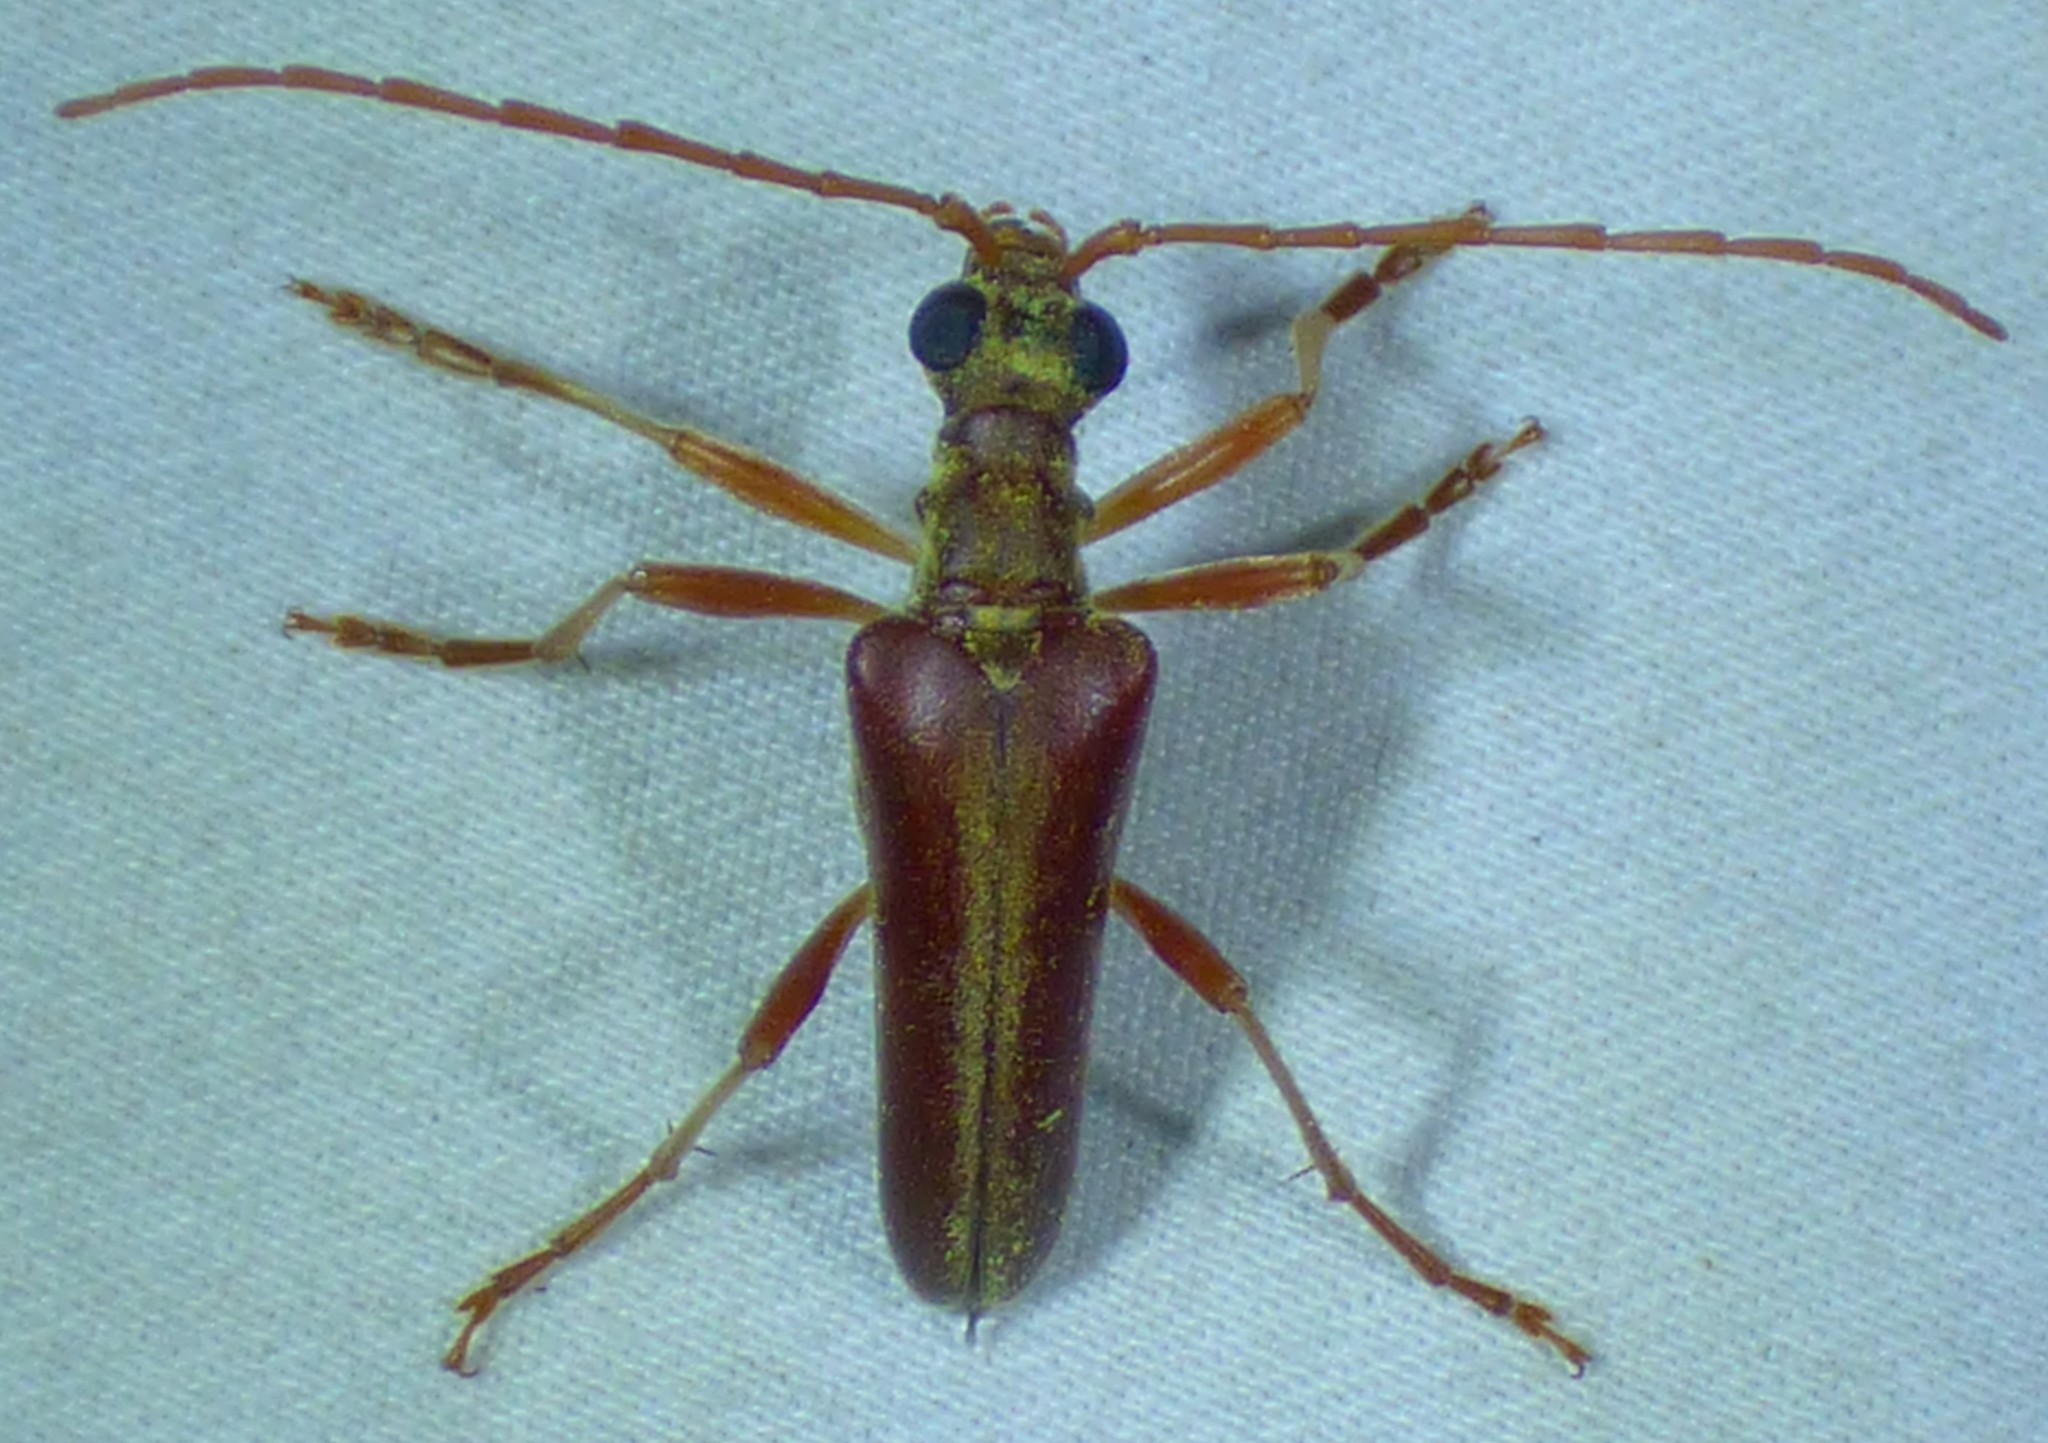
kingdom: Animalia
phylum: Arthropoda
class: Insecta
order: Coleoptera
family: Cerambycidae
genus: Stenocorus
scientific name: Stenocorus cinnamopterus
